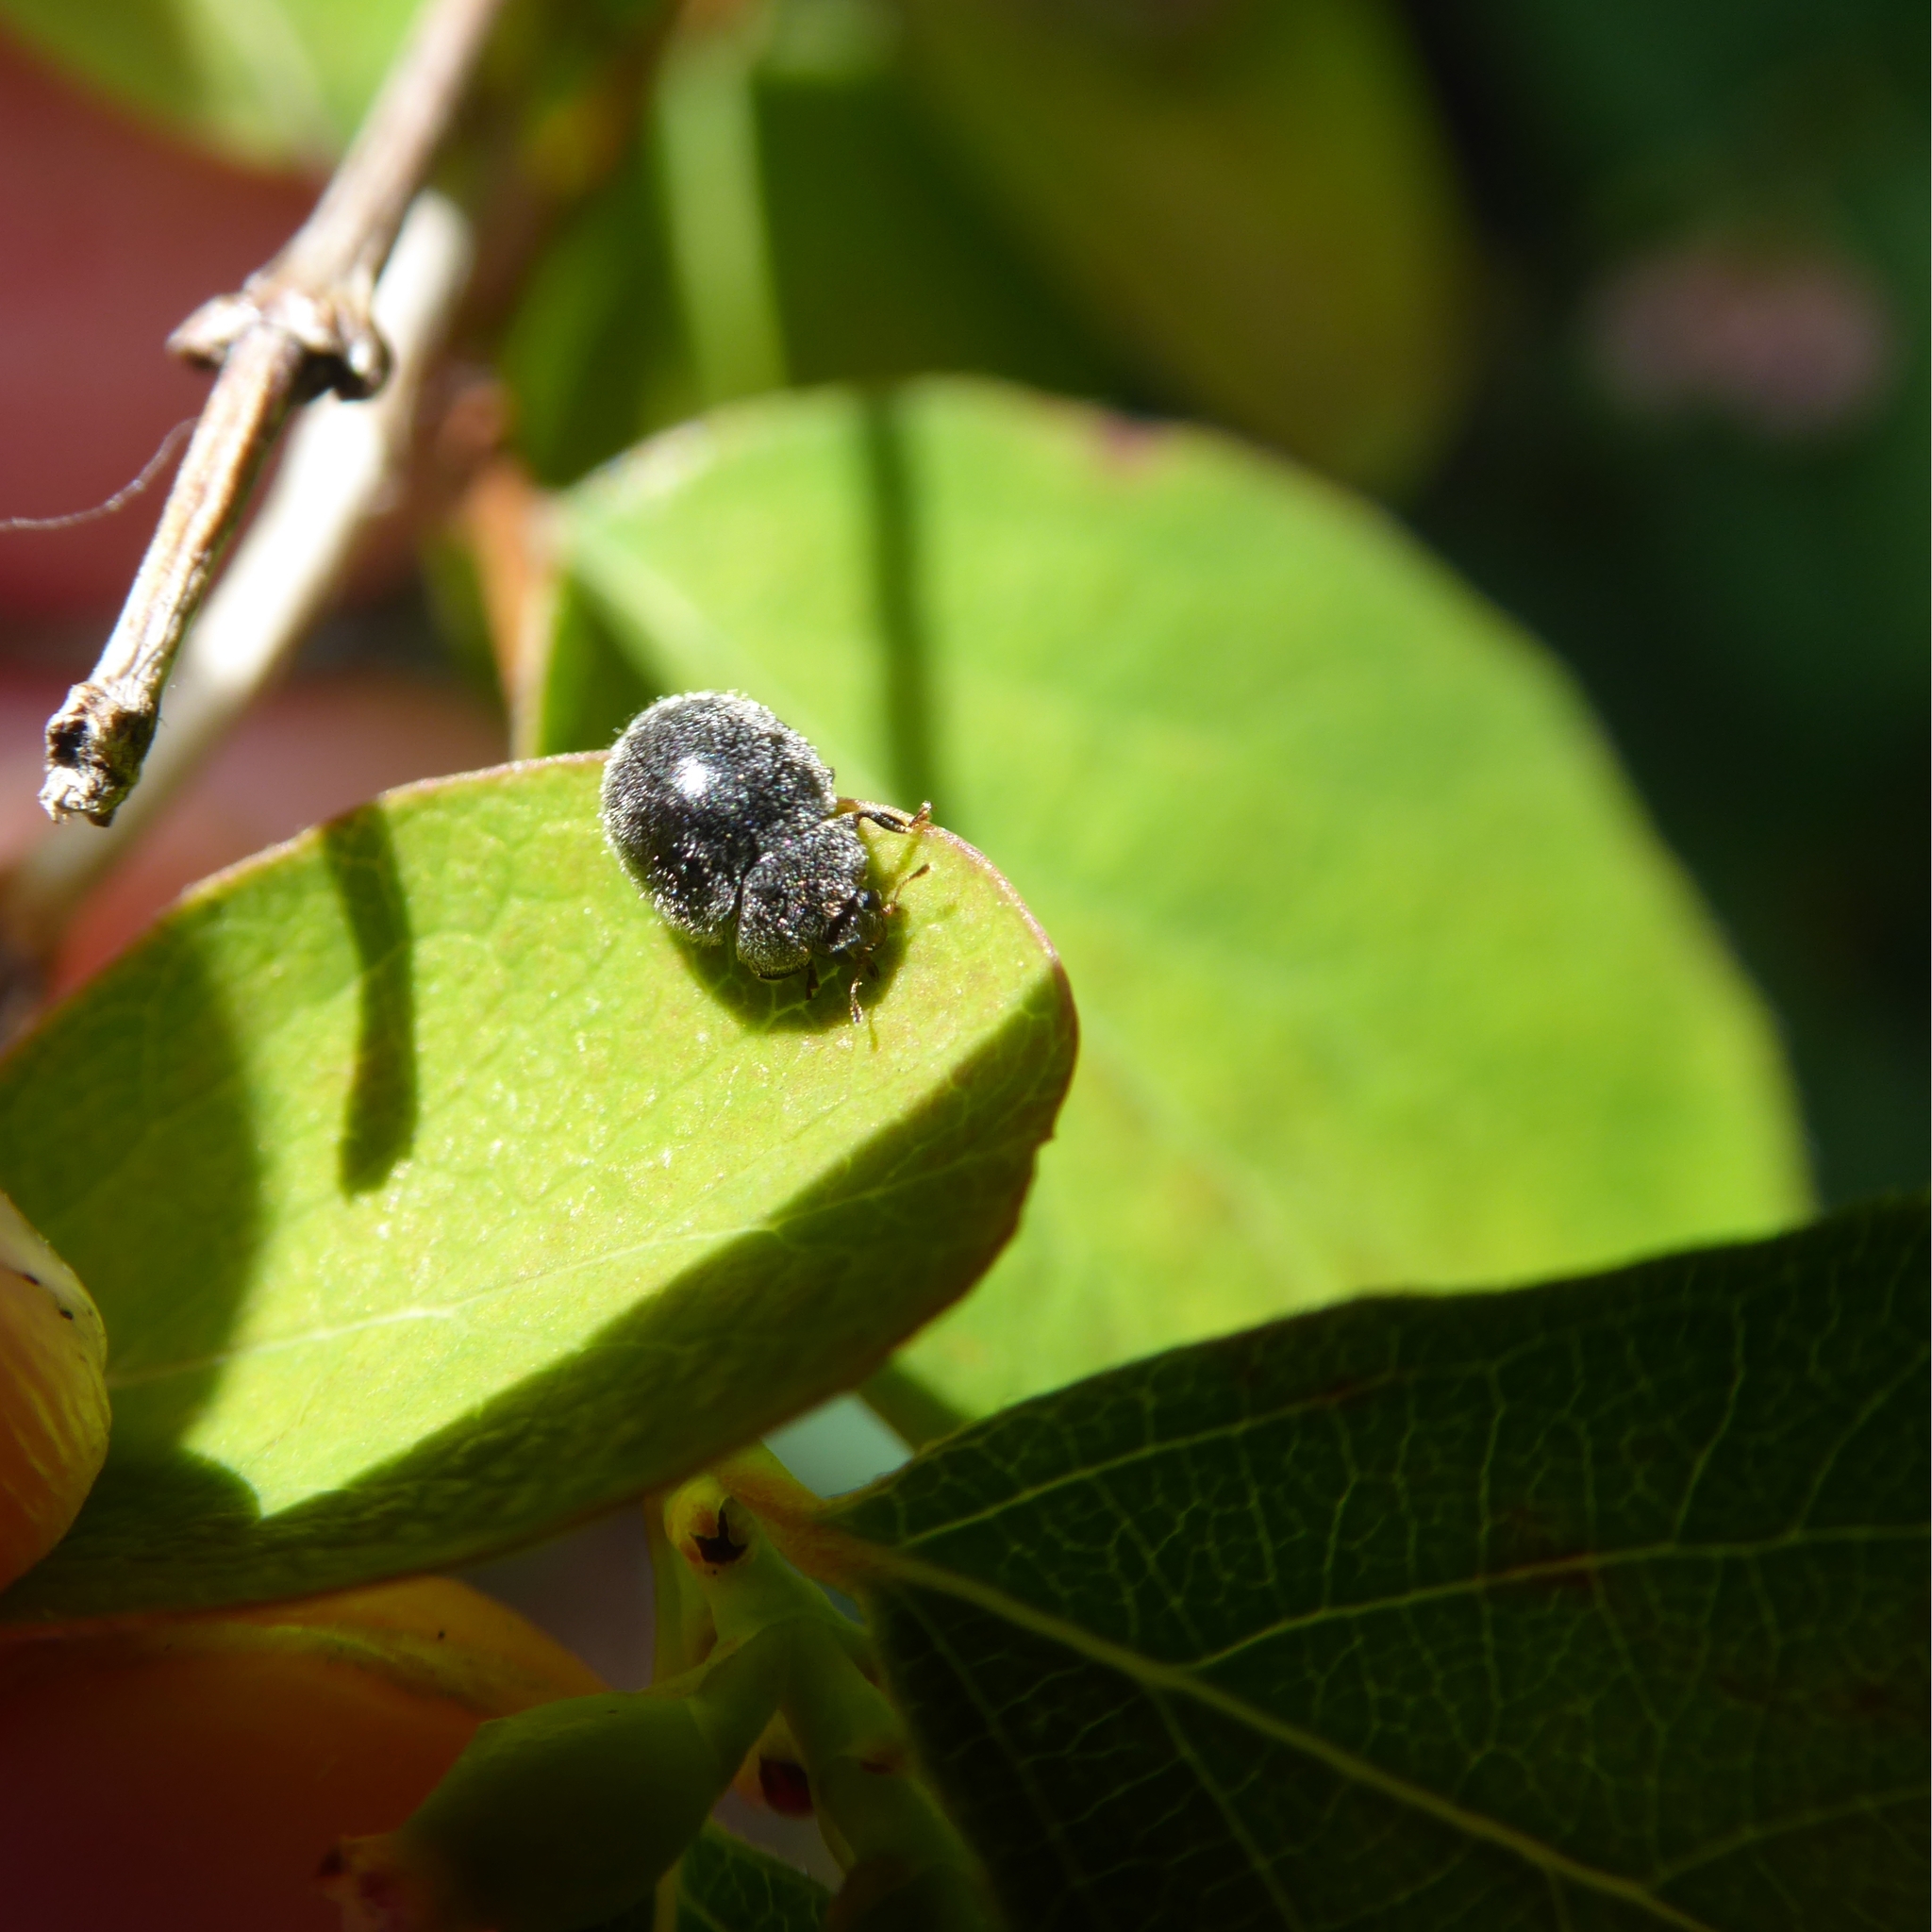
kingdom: Animalia
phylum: Arthropoda
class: Insecta
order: Coleoptera
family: Coccinellidae
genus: Rhyzobius
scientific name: Rhyzobius forestieri
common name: Ladybird beetle
